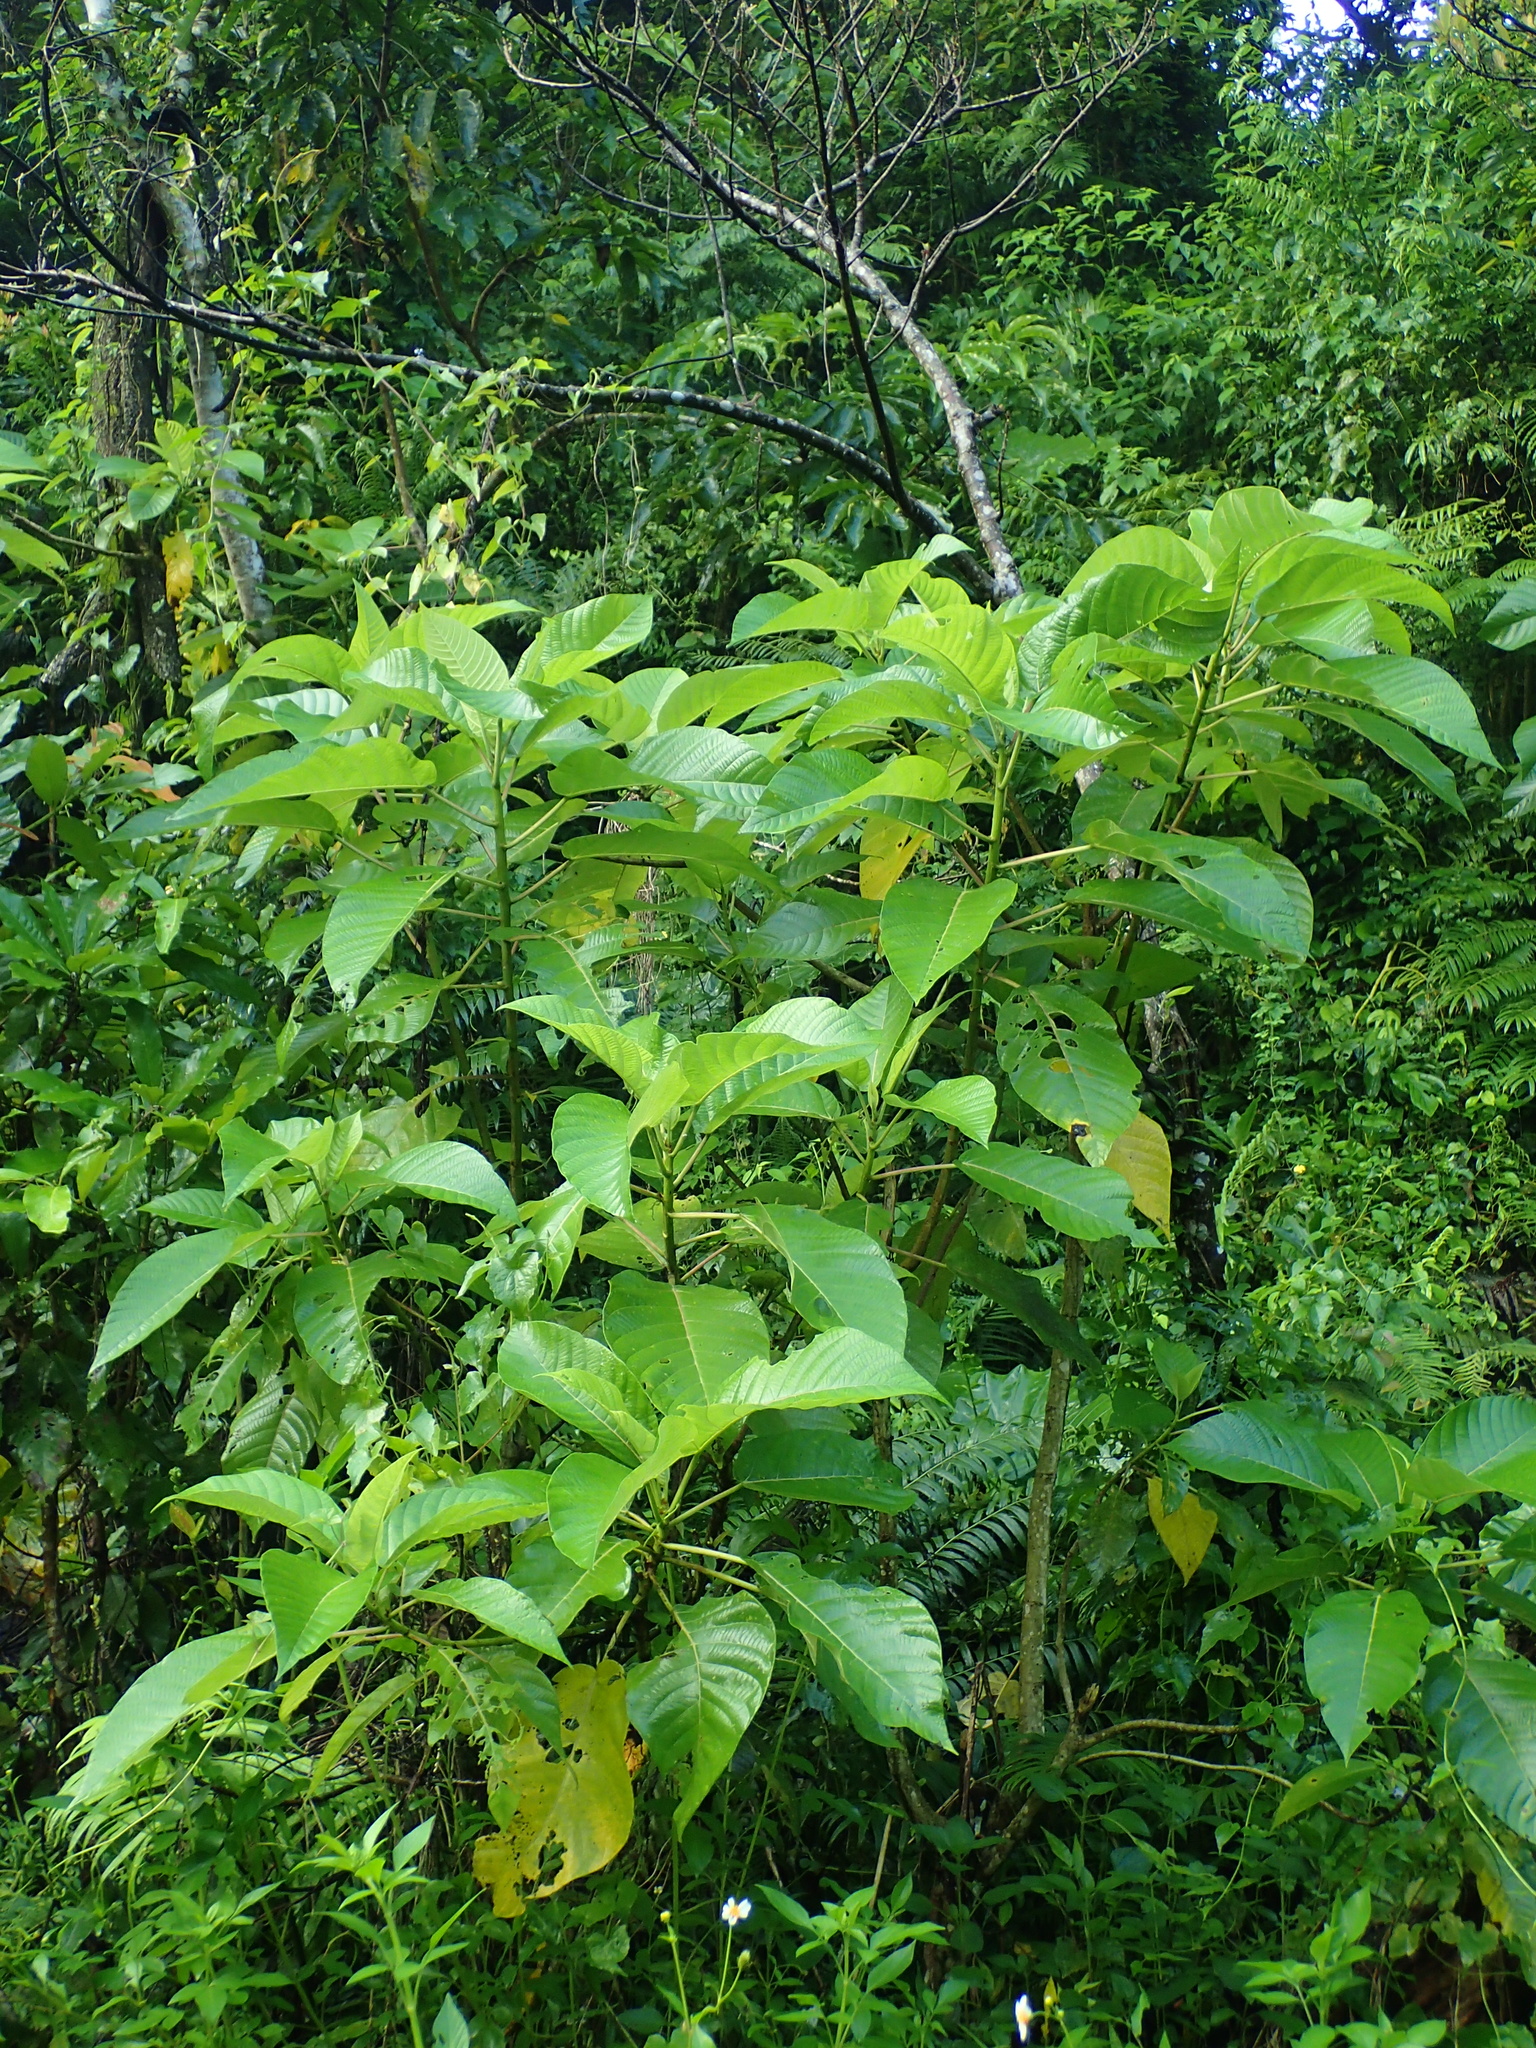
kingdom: Plantae
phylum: Tracheophyta
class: Magnoliopsida
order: Rosales
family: Urticaceae
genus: Dendrocnide
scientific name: Dendrocnide meyeniana
